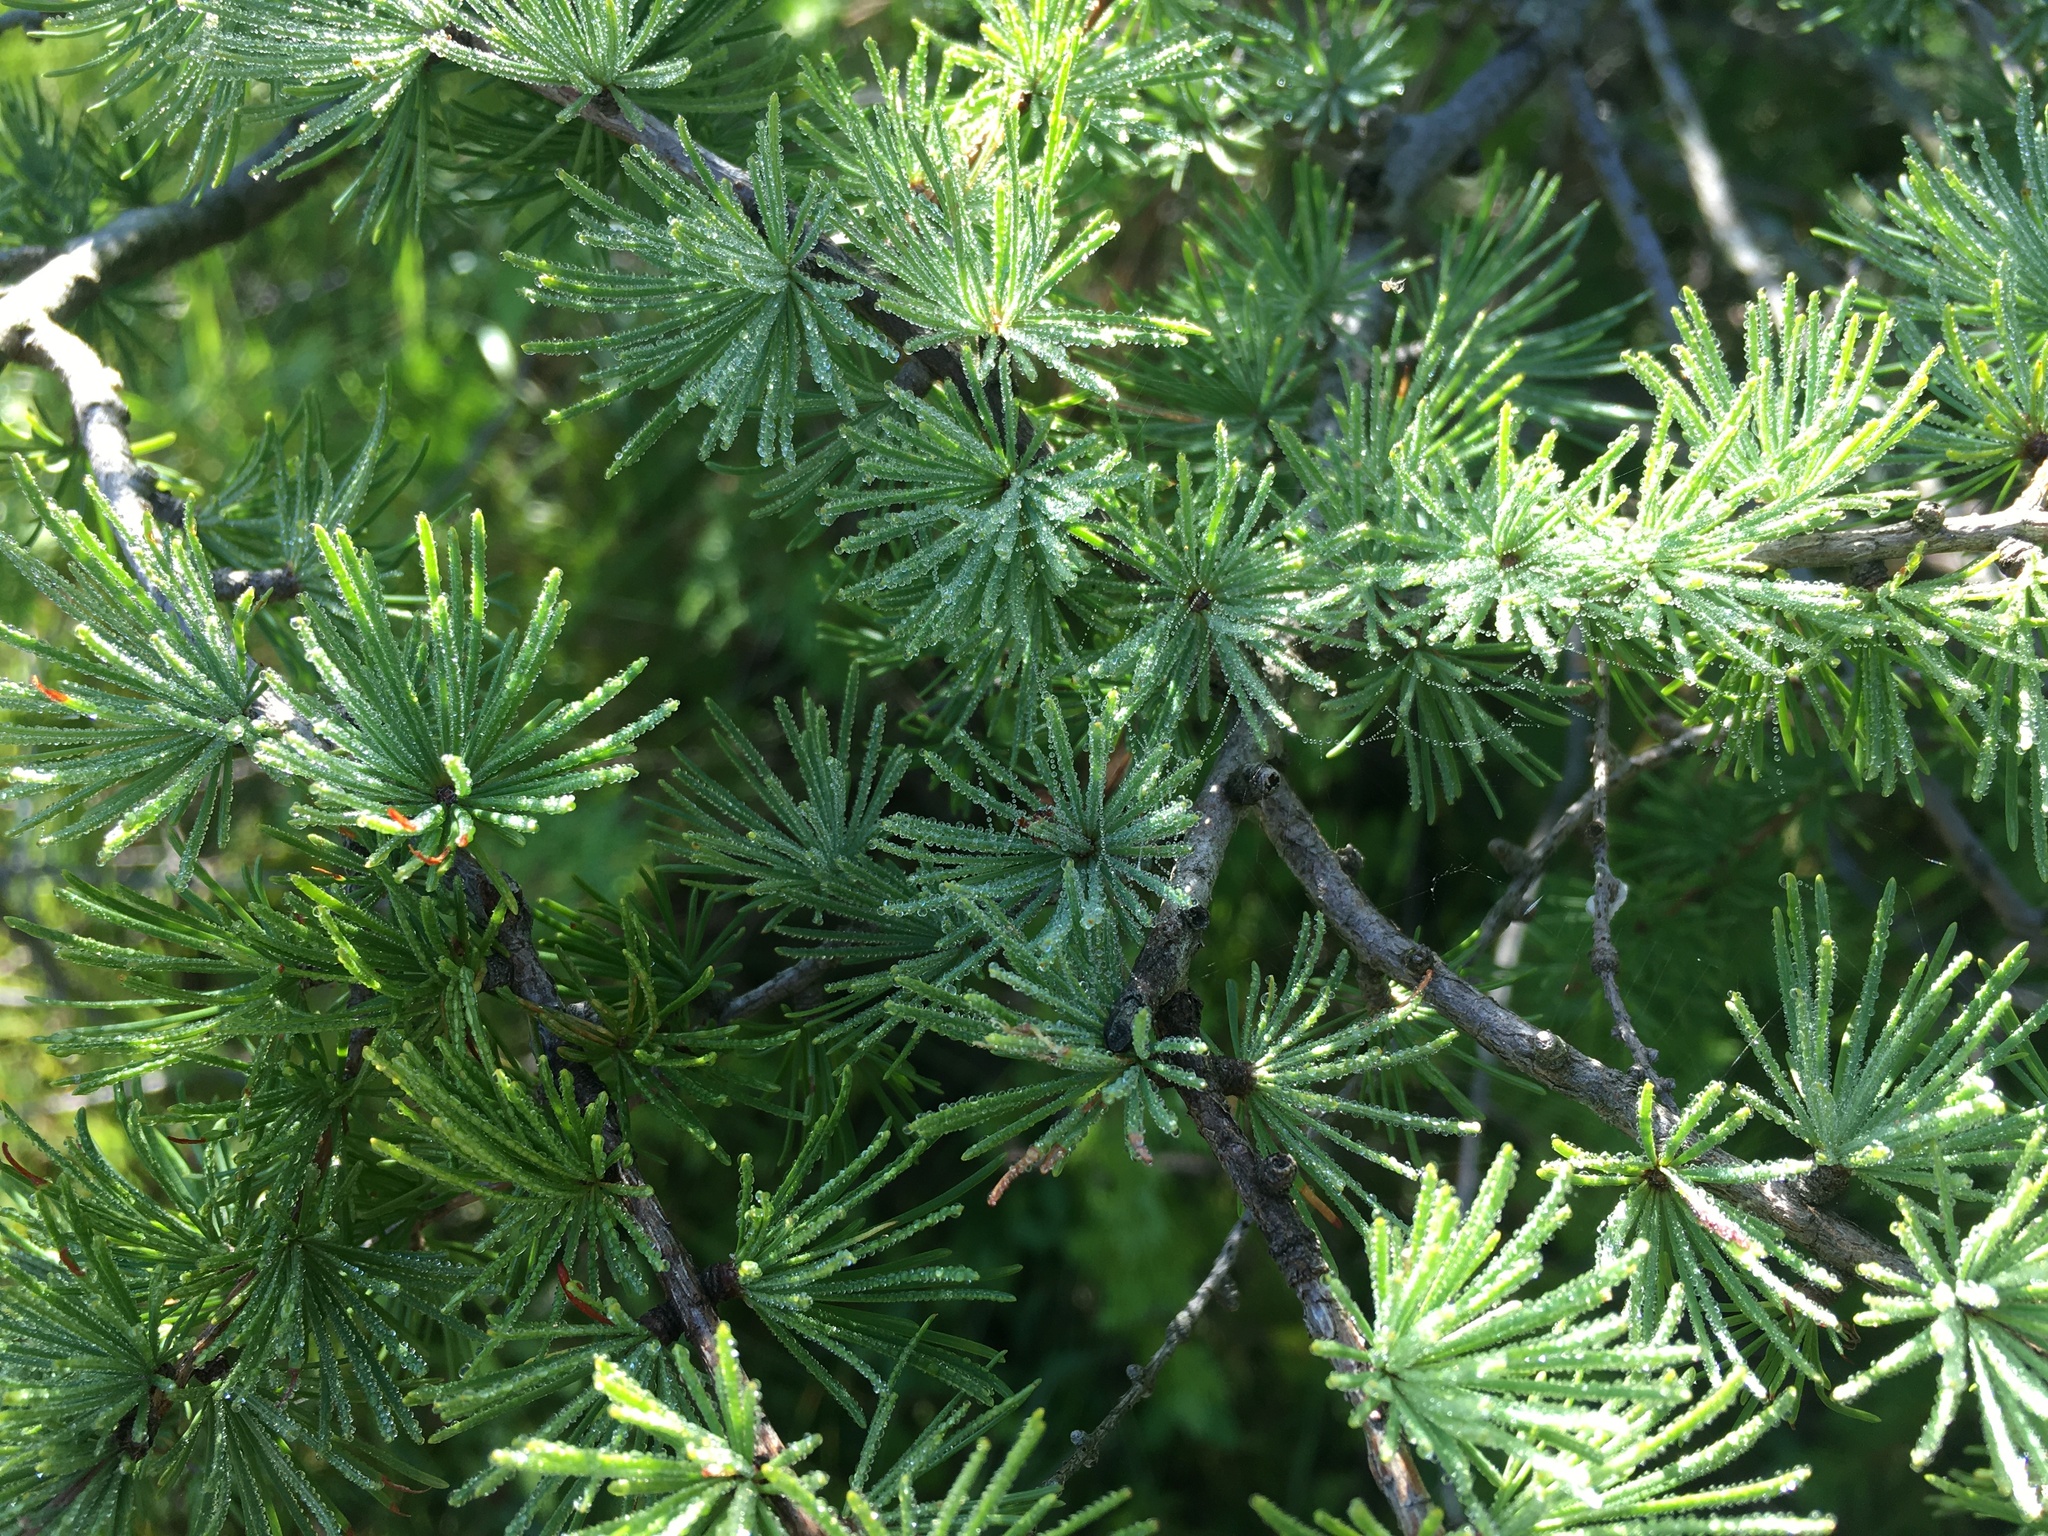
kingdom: Plantae
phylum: Tracheophyta
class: Pinopsida
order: Pinales
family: Pinaceae
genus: Larix
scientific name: Larix laricina
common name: American larch
